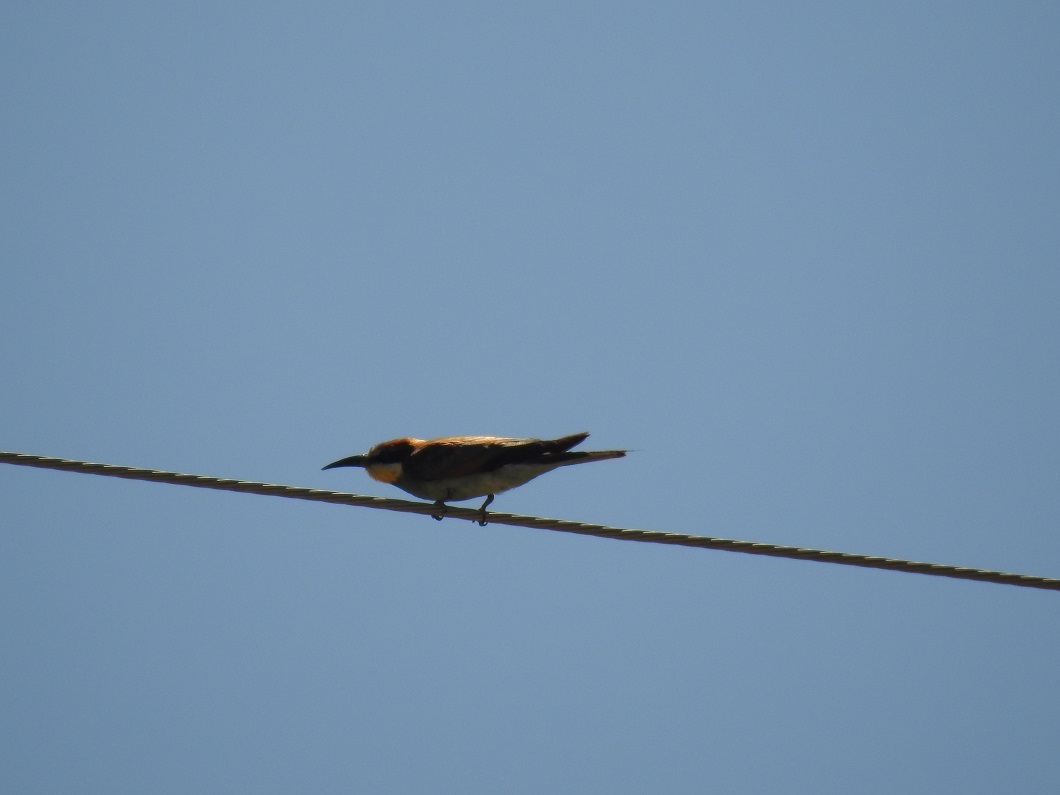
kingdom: Animalia
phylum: Chordata
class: Aves
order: Coraciiformes
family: Meropidae
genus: Merops
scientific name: Merops apiaster
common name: European bee-eater
